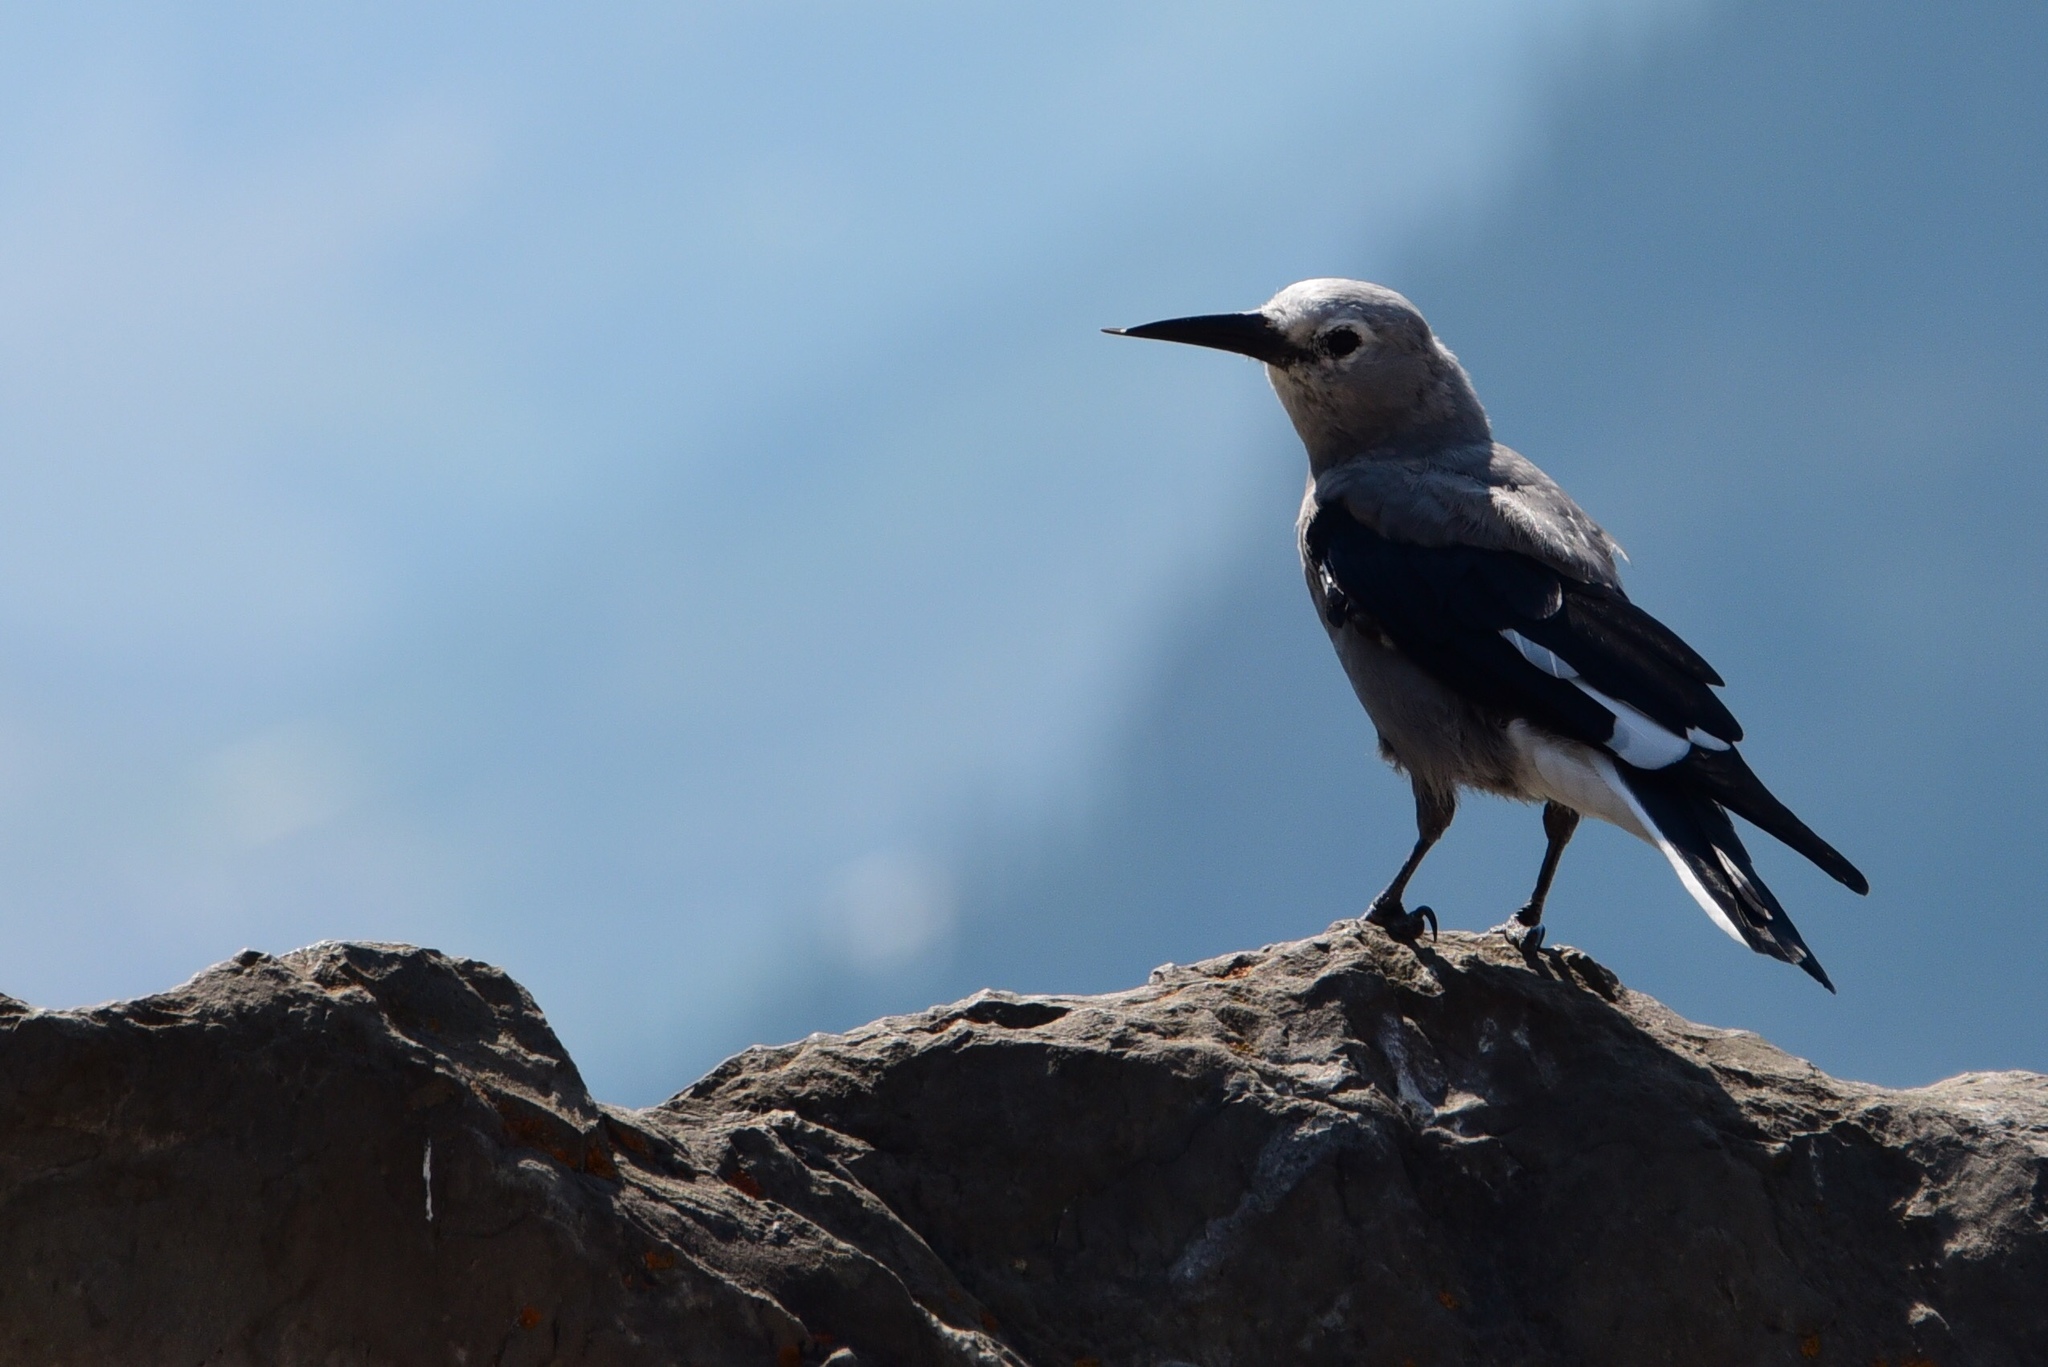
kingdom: Animalia
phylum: Chordata
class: Aves
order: Passeriformes
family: Corvidae
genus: Nucifraga
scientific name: Nucifraga columbiana
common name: Clark's nutcracker
